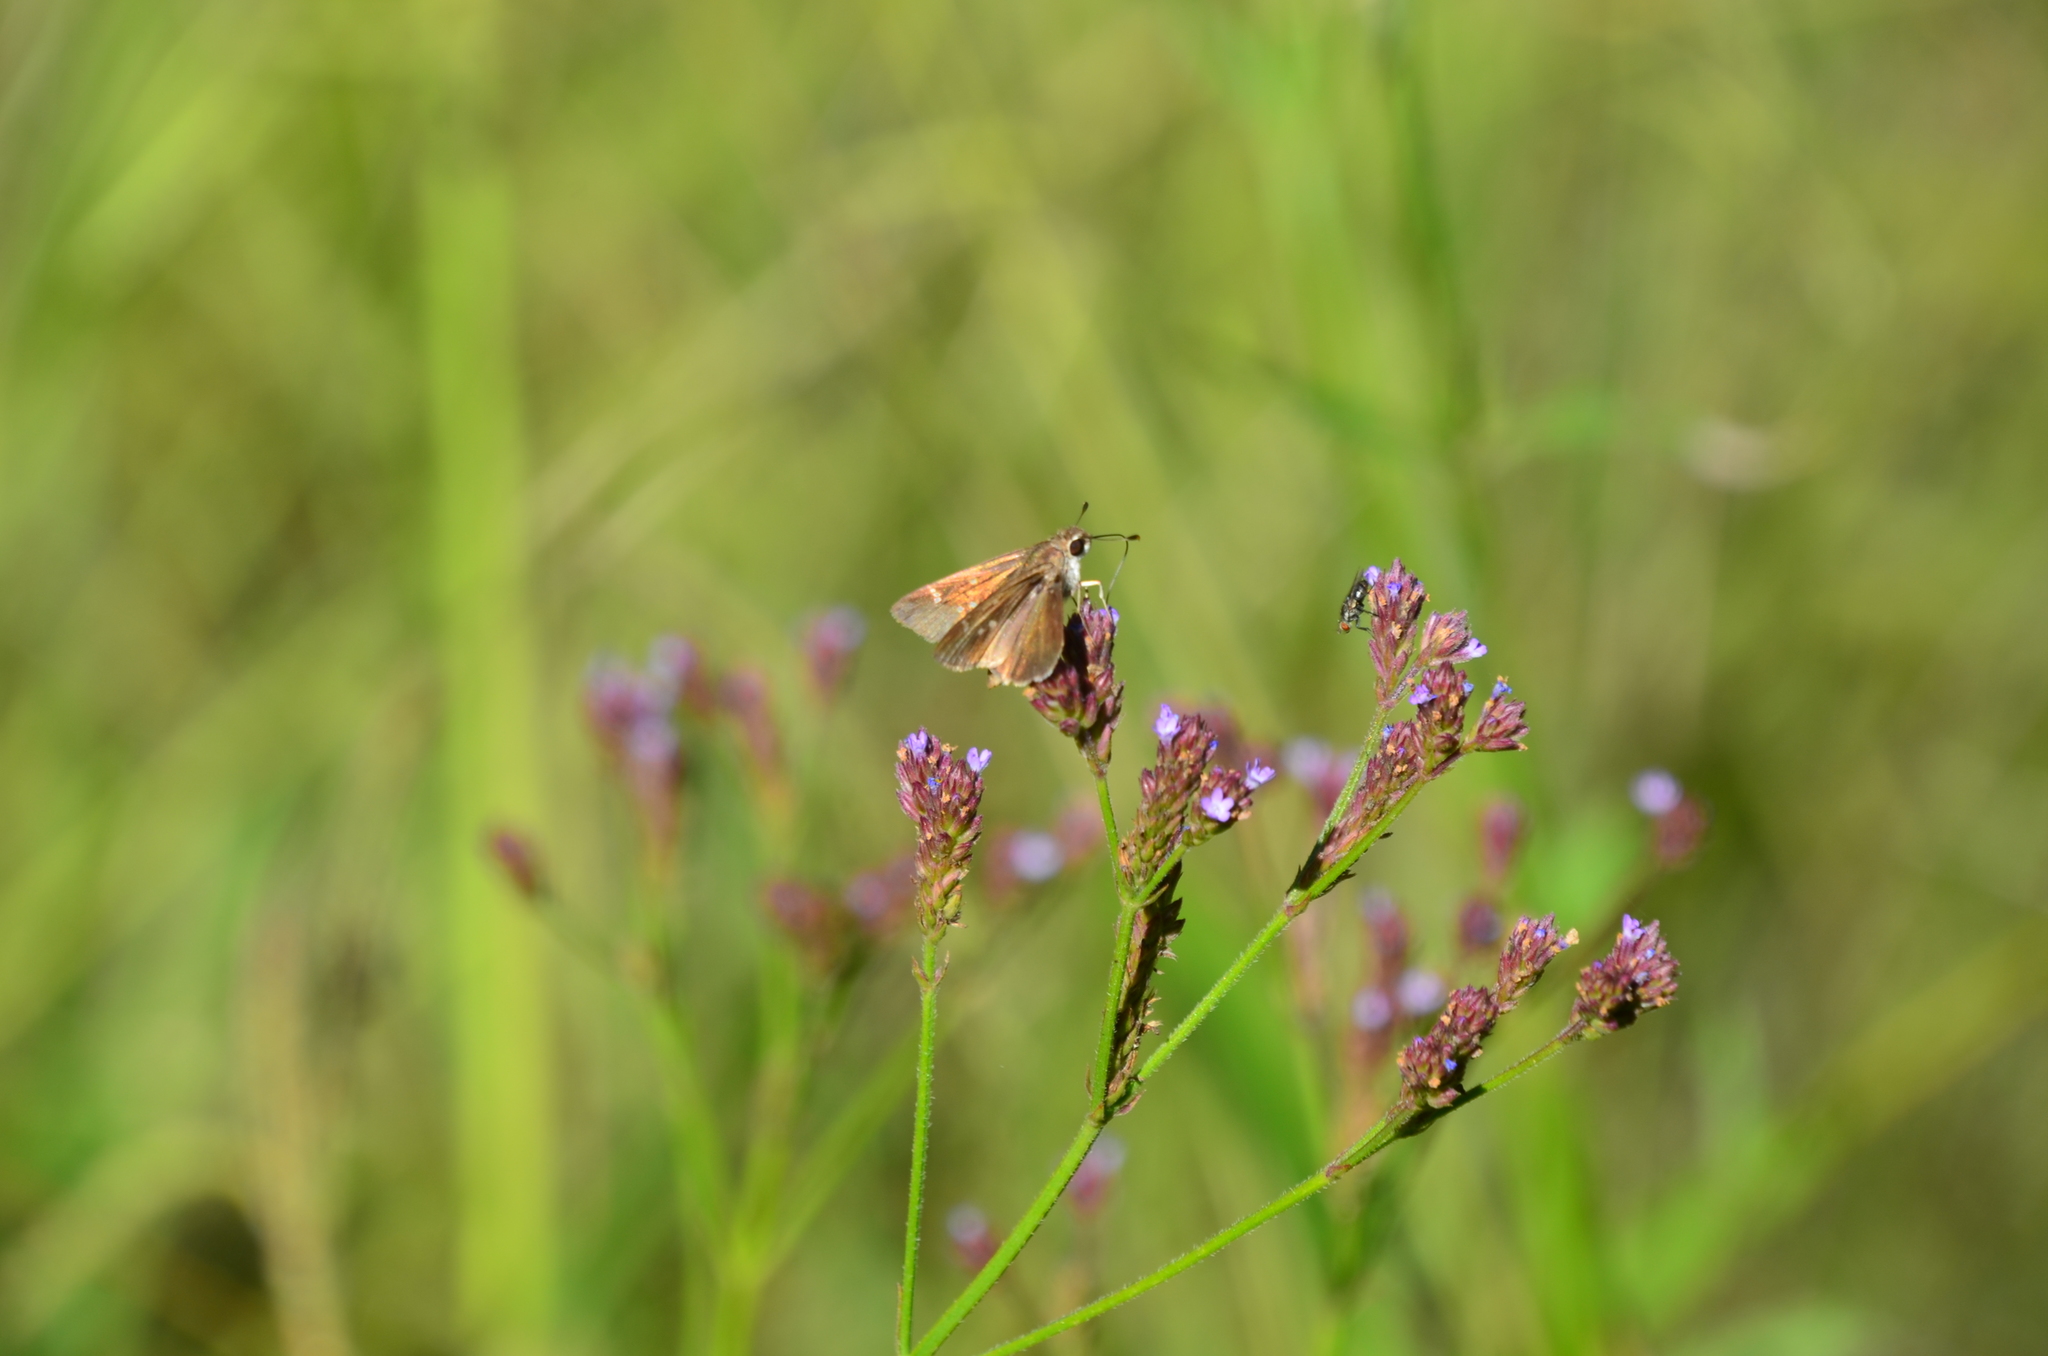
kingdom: Animalia
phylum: Arthropoda
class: Insecta
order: Lepidoptera
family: Hesperiidae
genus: Lerodea
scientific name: Lerodea eufala
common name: Eufala skipper
